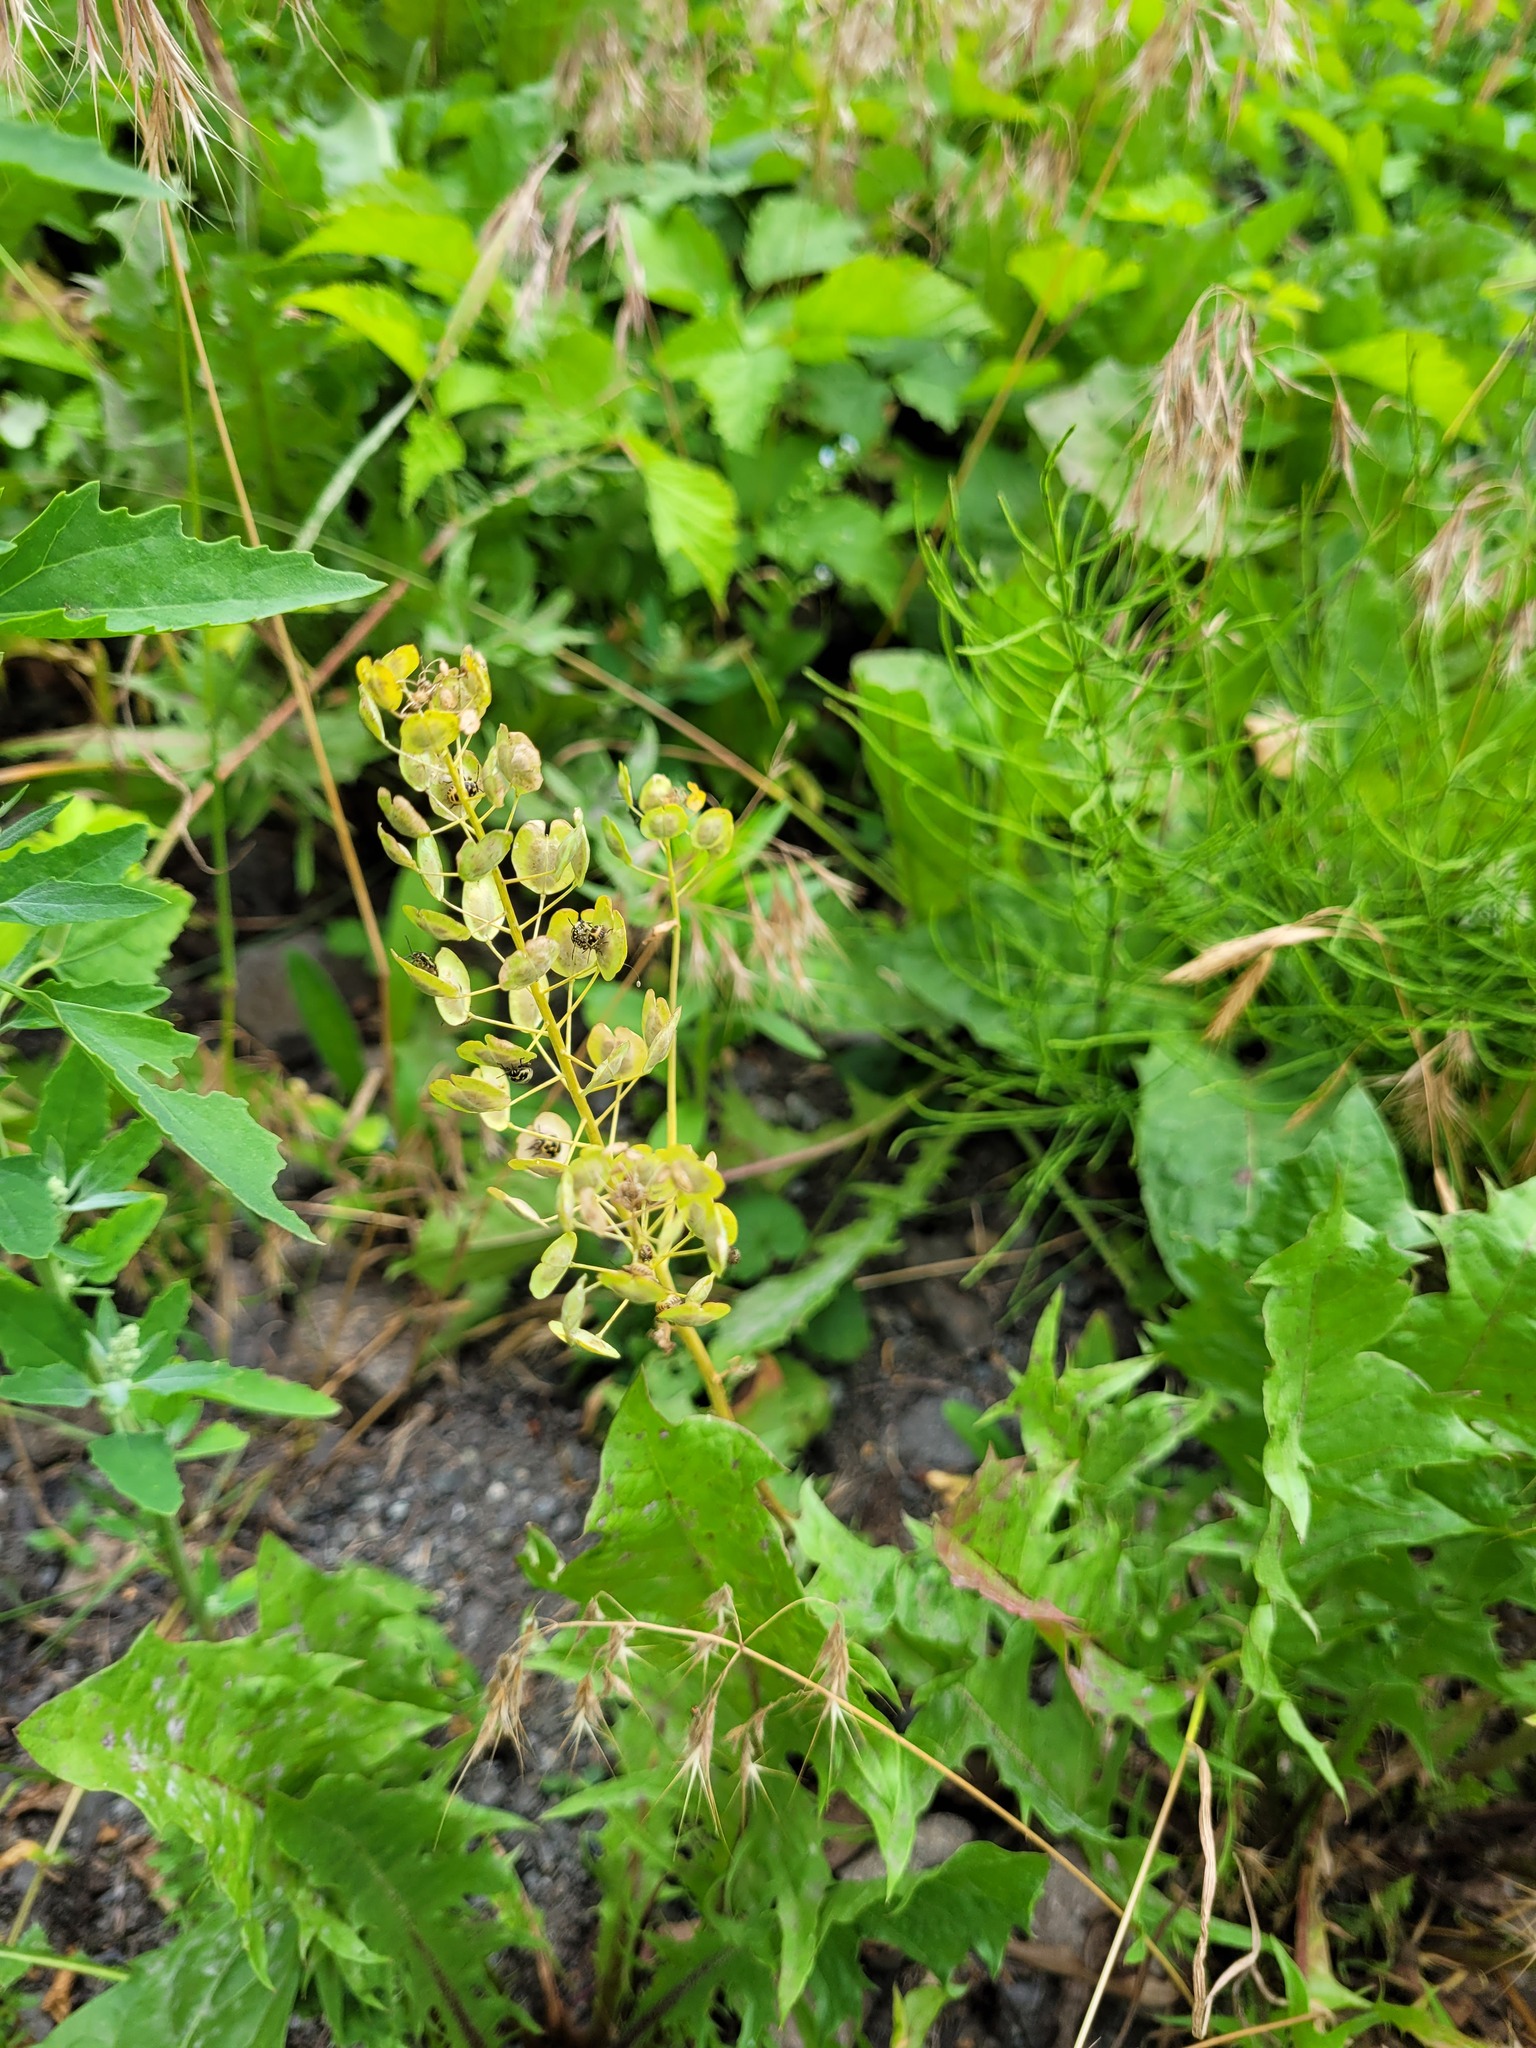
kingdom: Plantae
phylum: Tracheophyta
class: Magnoliopsida
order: Brassicales
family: Brassicaceae
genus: Thlaspi
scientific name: Thlaspi arvense
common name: Field pennycress
